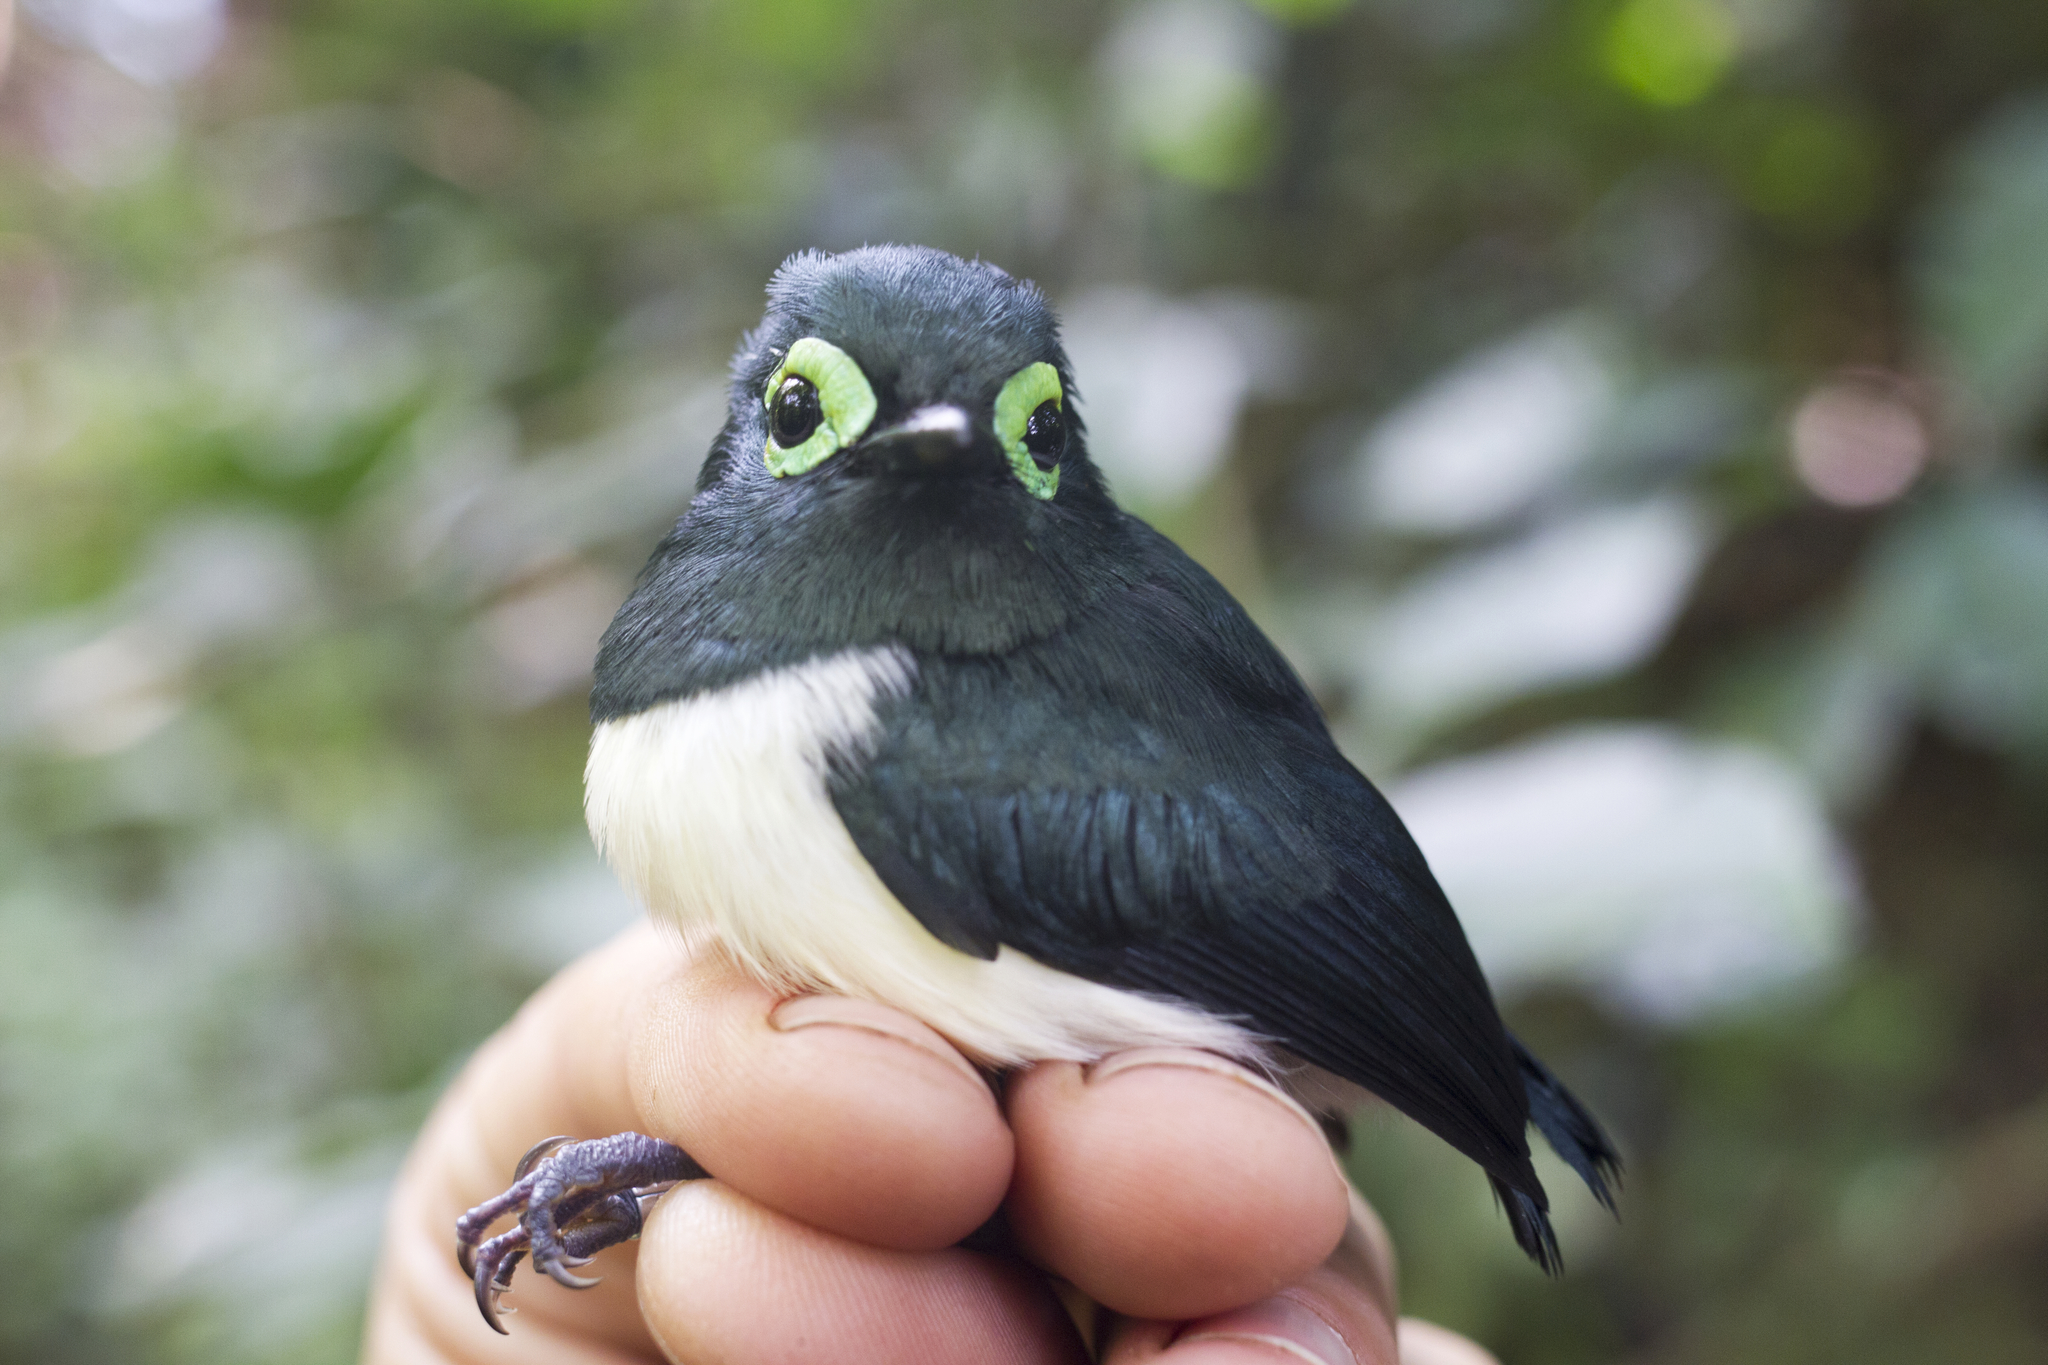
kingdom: Animalia
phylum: Chordata
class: Aves
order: Passeriformes
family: Platysteiridae
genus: Platysteira
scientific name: Platysteira chalybea
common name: Black-necked wattle-eye
